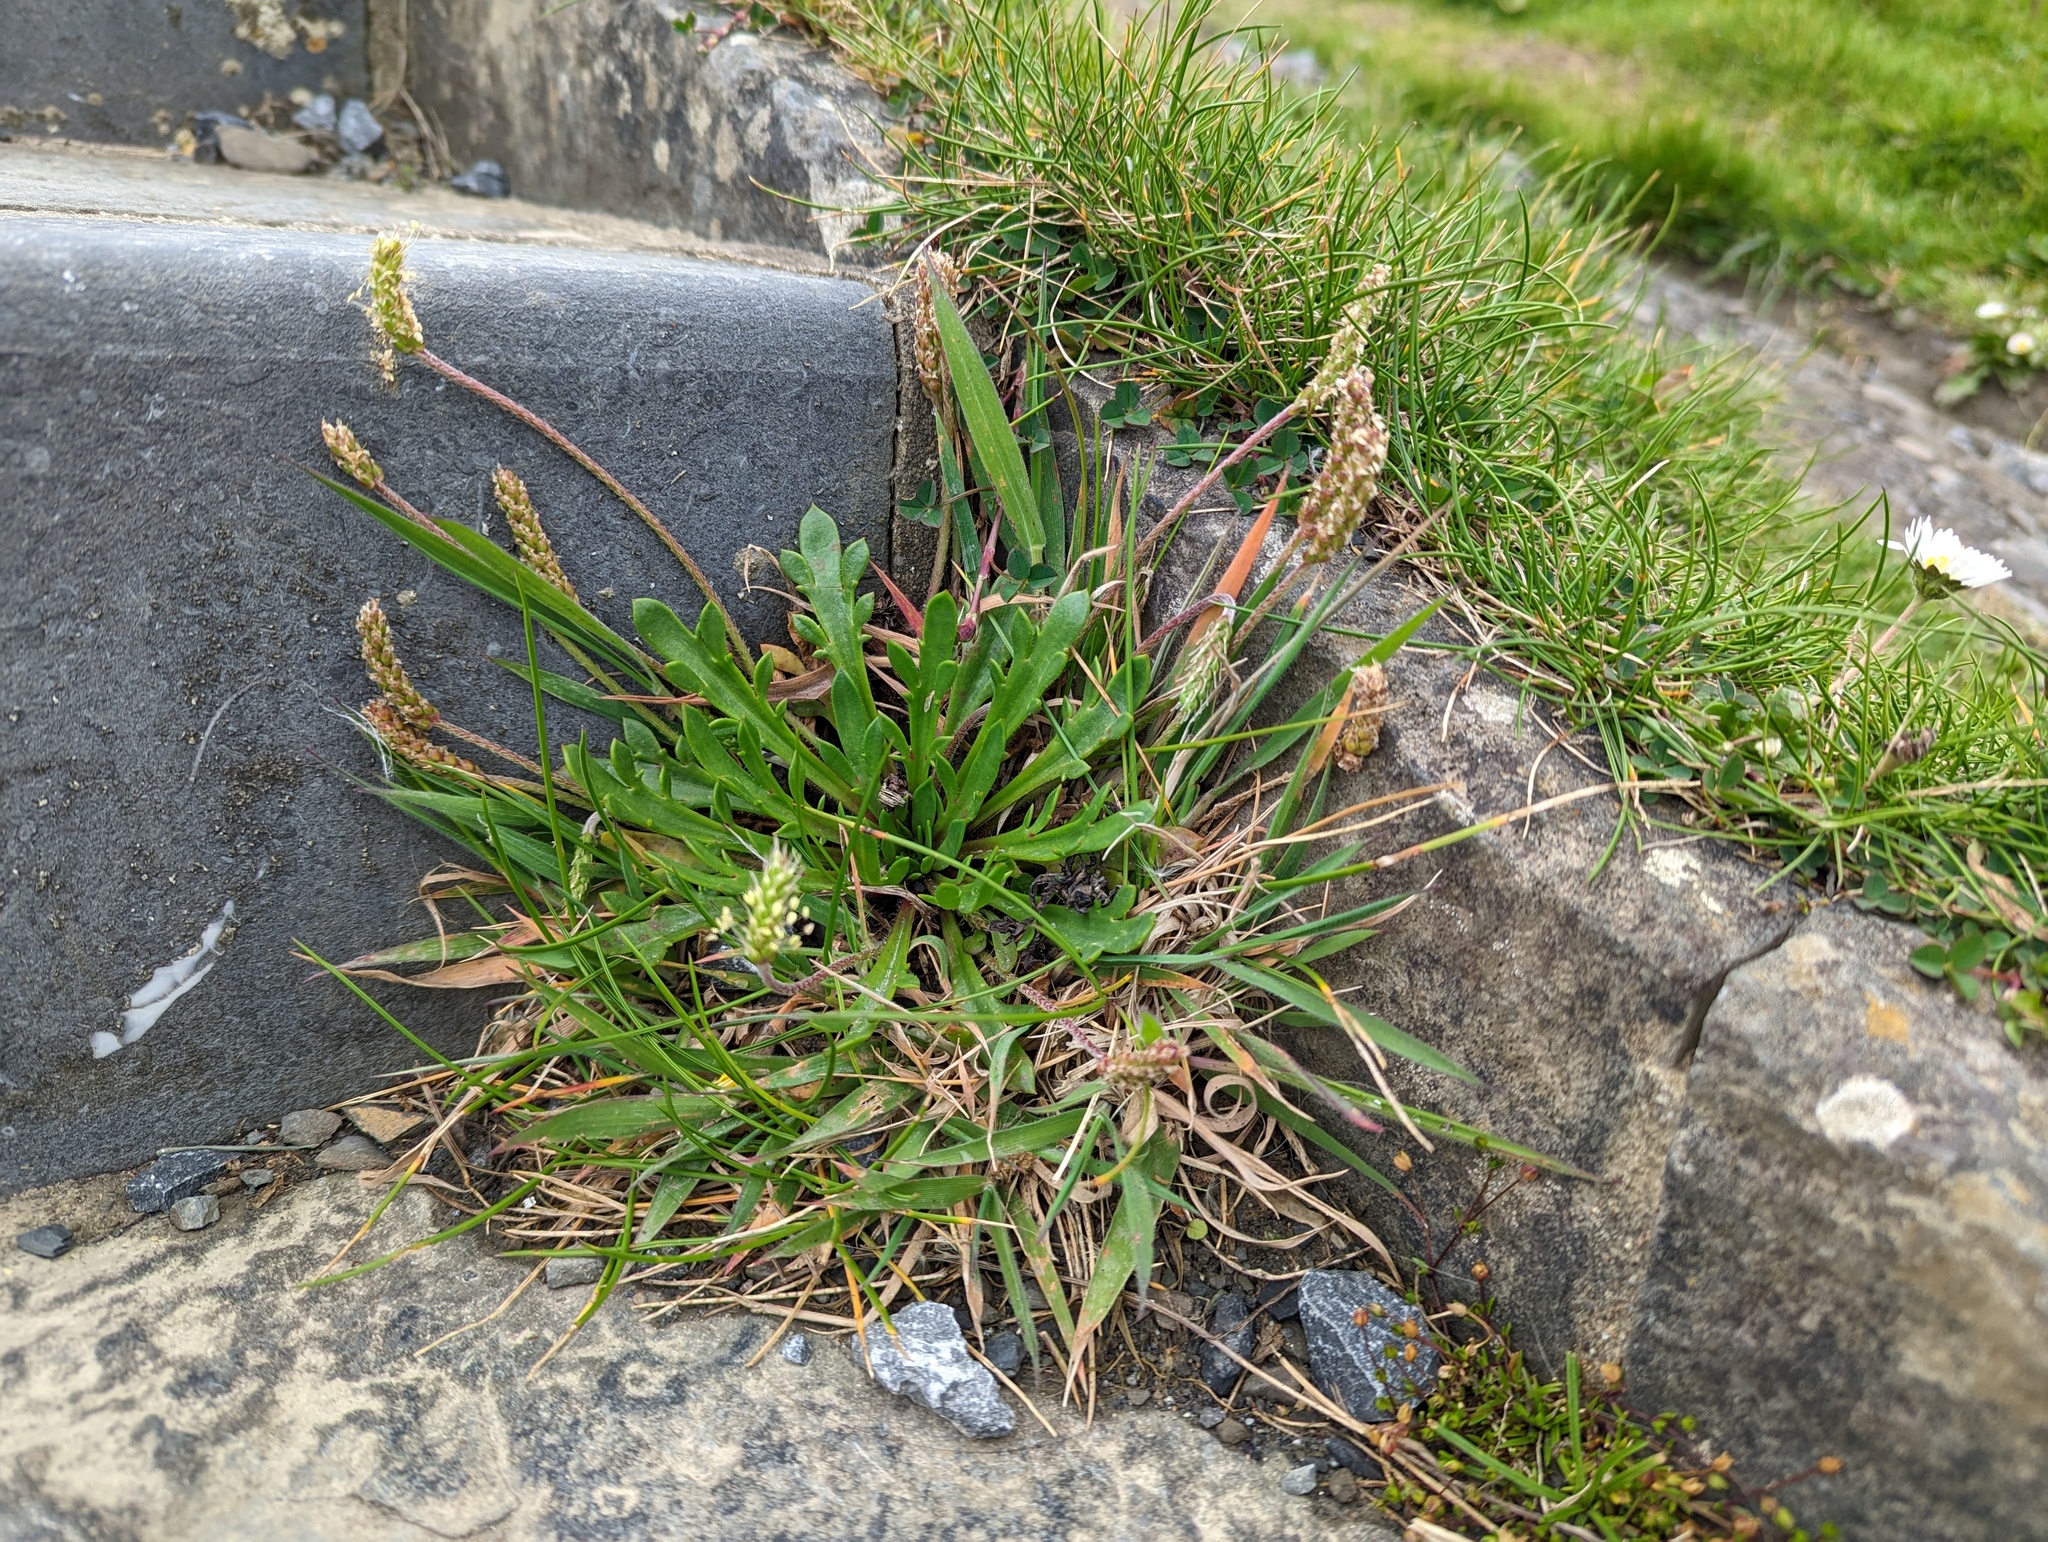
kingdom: Plantae
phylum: Tracheophyta
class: Magnoliopsida
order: Lamiales
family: Plantaginaceae
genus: Plantago
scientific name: Plantago coronopus
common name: Buck's-horn plantain
